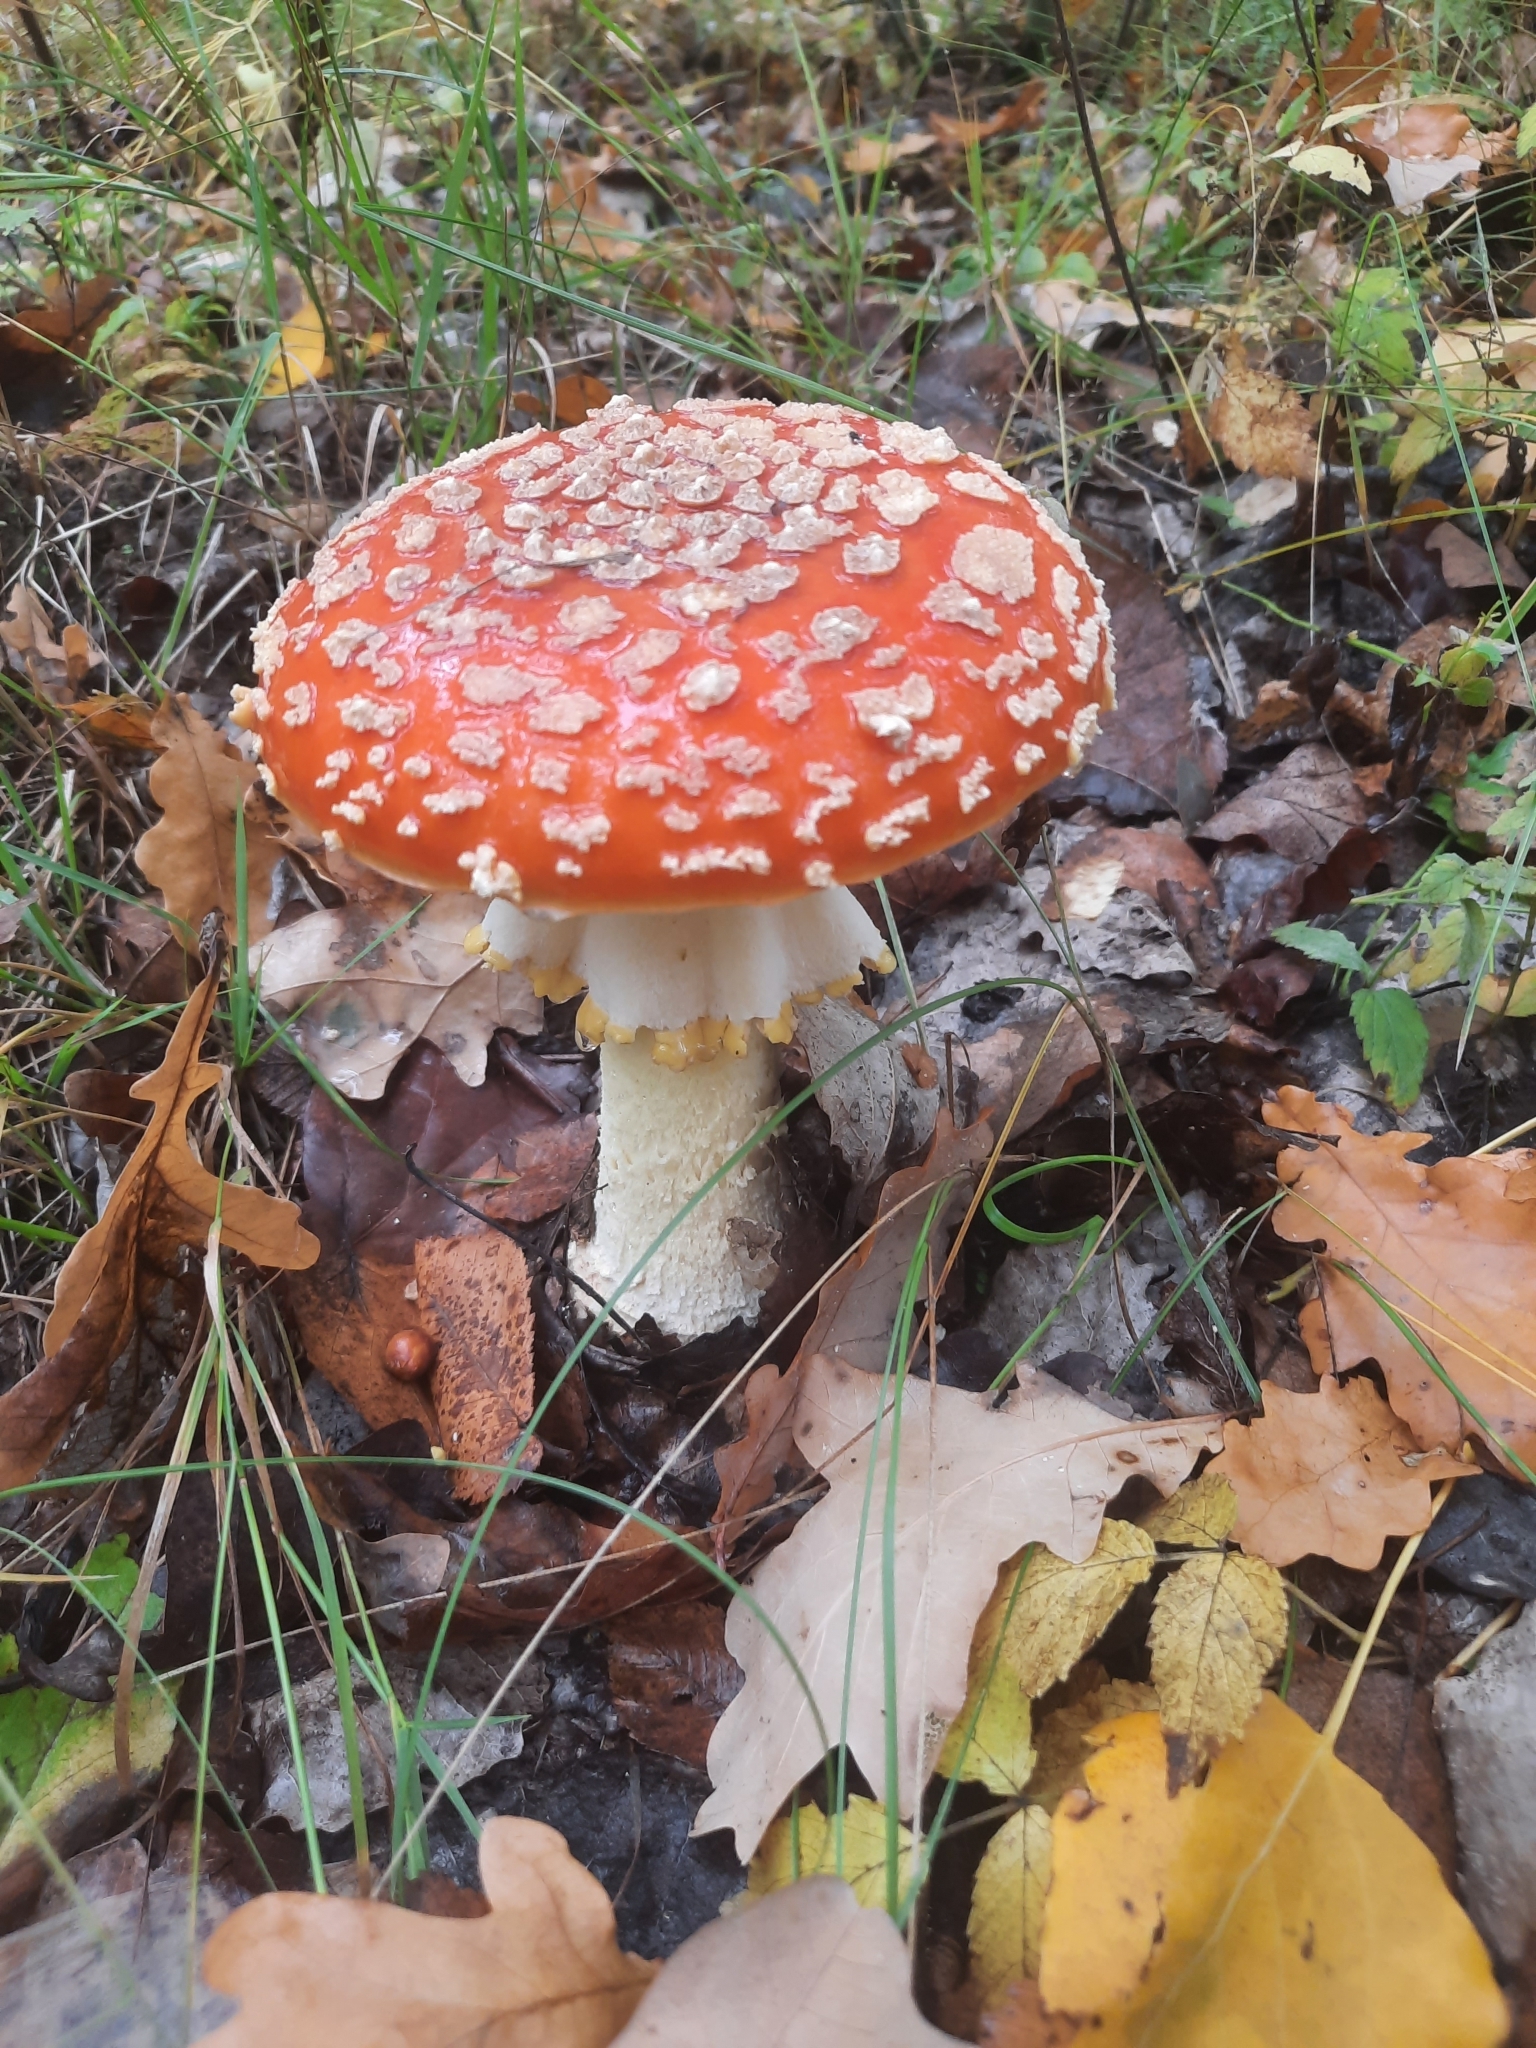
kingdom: Fungi
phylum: Basidiomycota
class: Agaricomycetes
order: Agaricales
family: Amanitaceae
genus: Amanita
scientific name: Amanita muscaria
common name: Fly agaric
